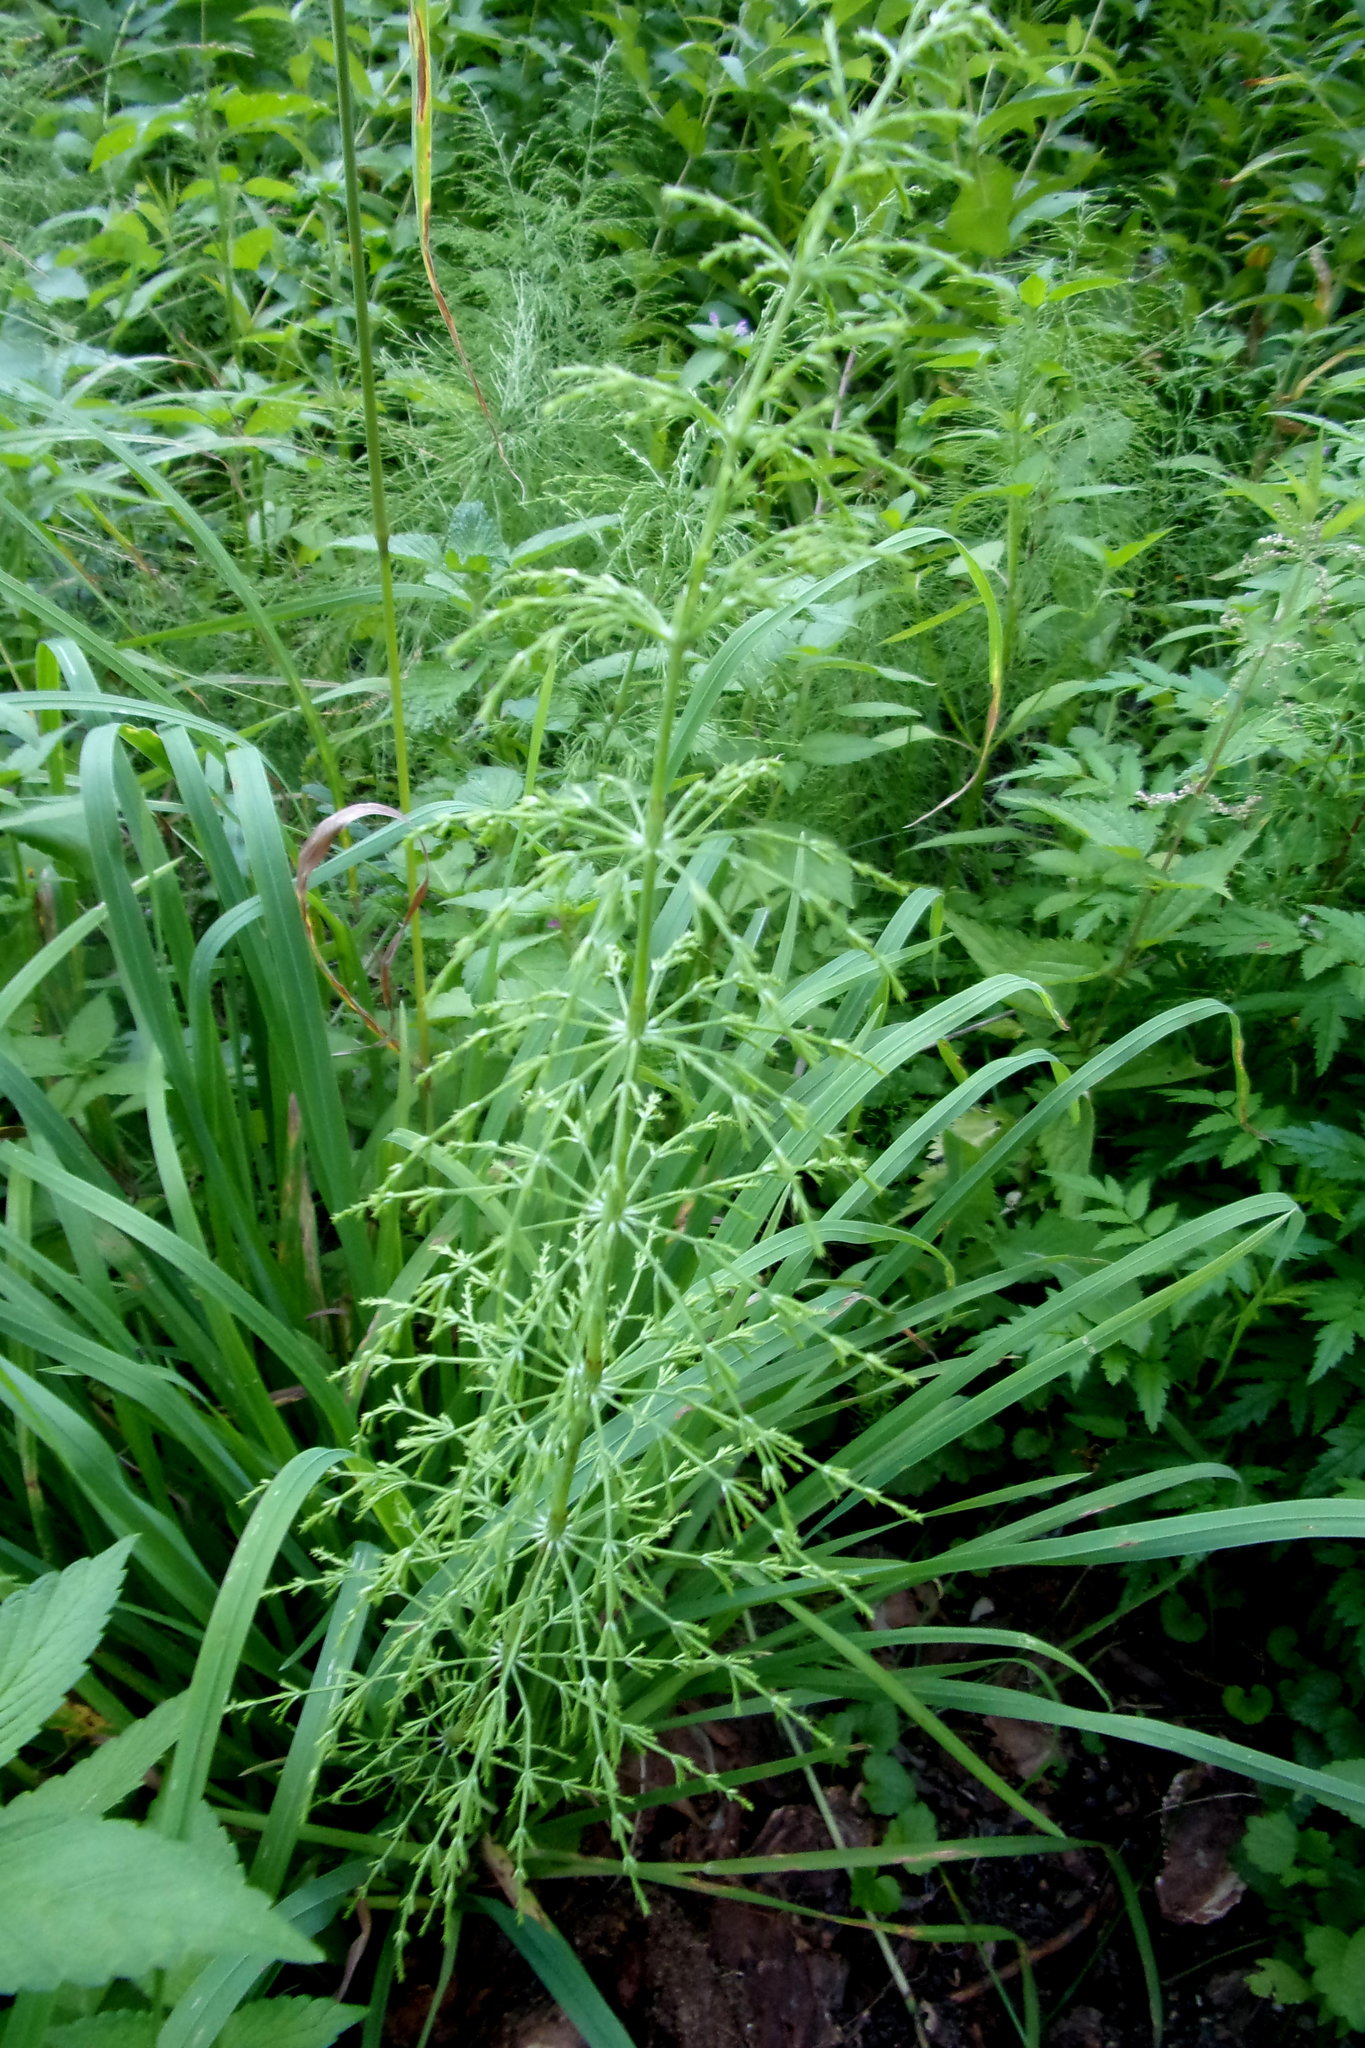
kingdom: Plantae
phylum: Tracheophyta
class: Polypodiopsida
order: Equisetales
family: Equisetaceae
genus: Equisetum
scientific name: Equisetum sylvaticum
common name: Wood horsetail
